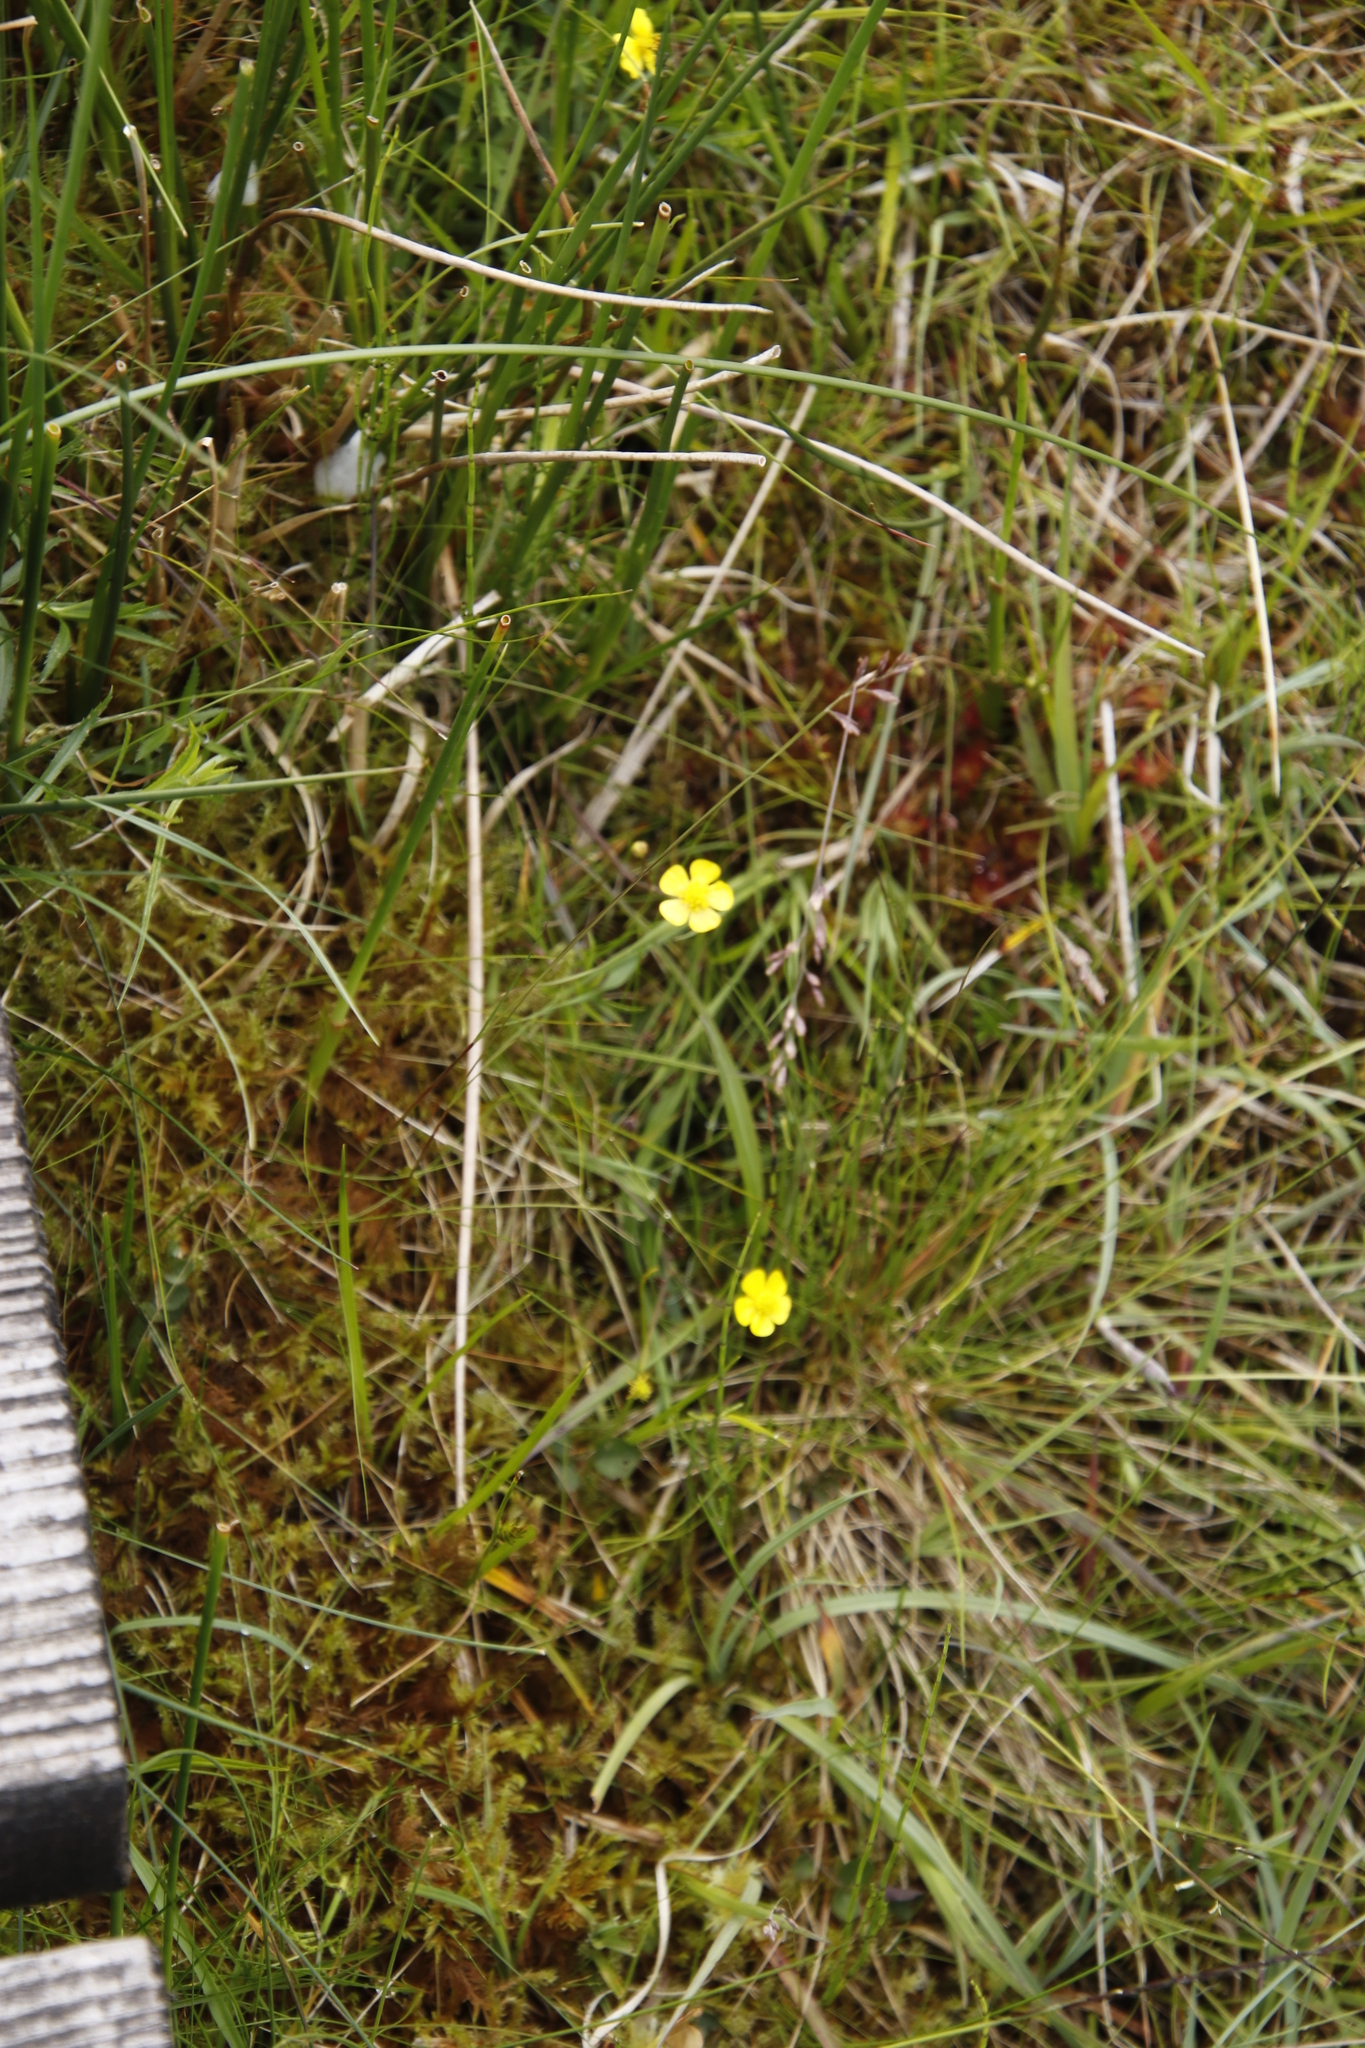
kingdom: Plantae
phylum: Tracheophyta
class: Magnoliopsida
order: Ranunculales
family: Ranunculaceae
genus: Ranunculus
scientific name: Ranunculus flammula
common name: Lesser spearwort
